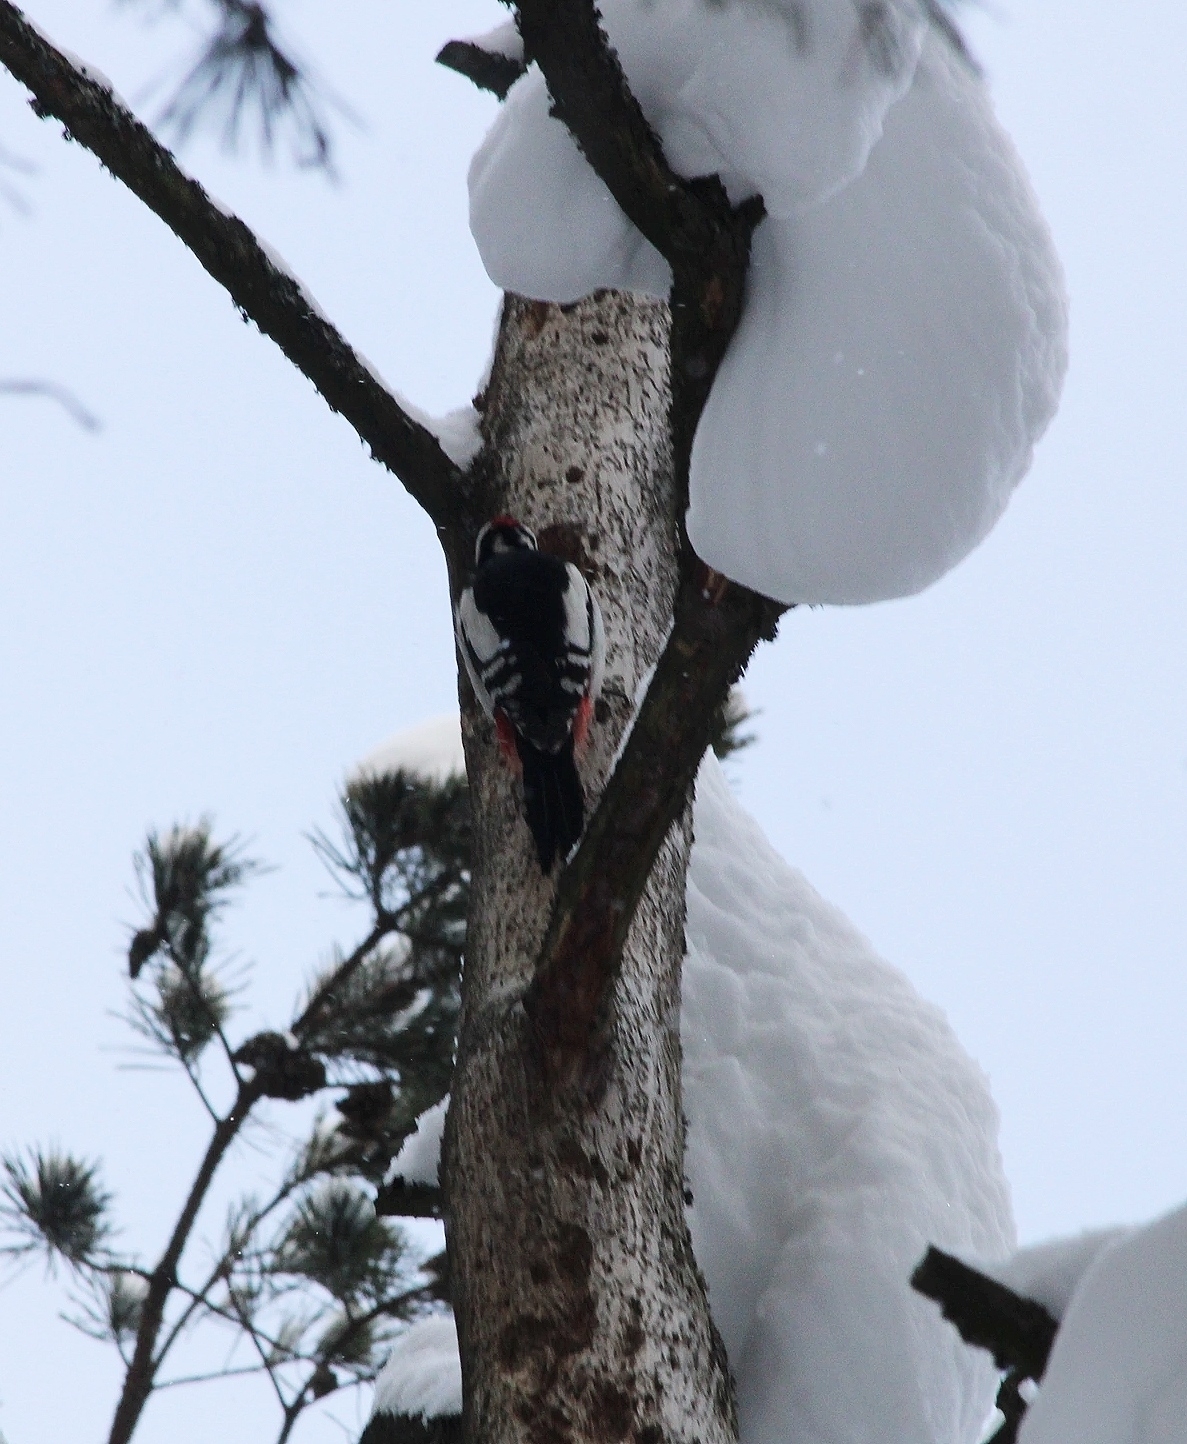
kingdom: Animalia
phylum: Chordata
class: Aves
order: Piciformes
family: Picidae
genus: Dendrocopos
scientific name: Dendrocopos major
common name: Great spotted woodpecker
